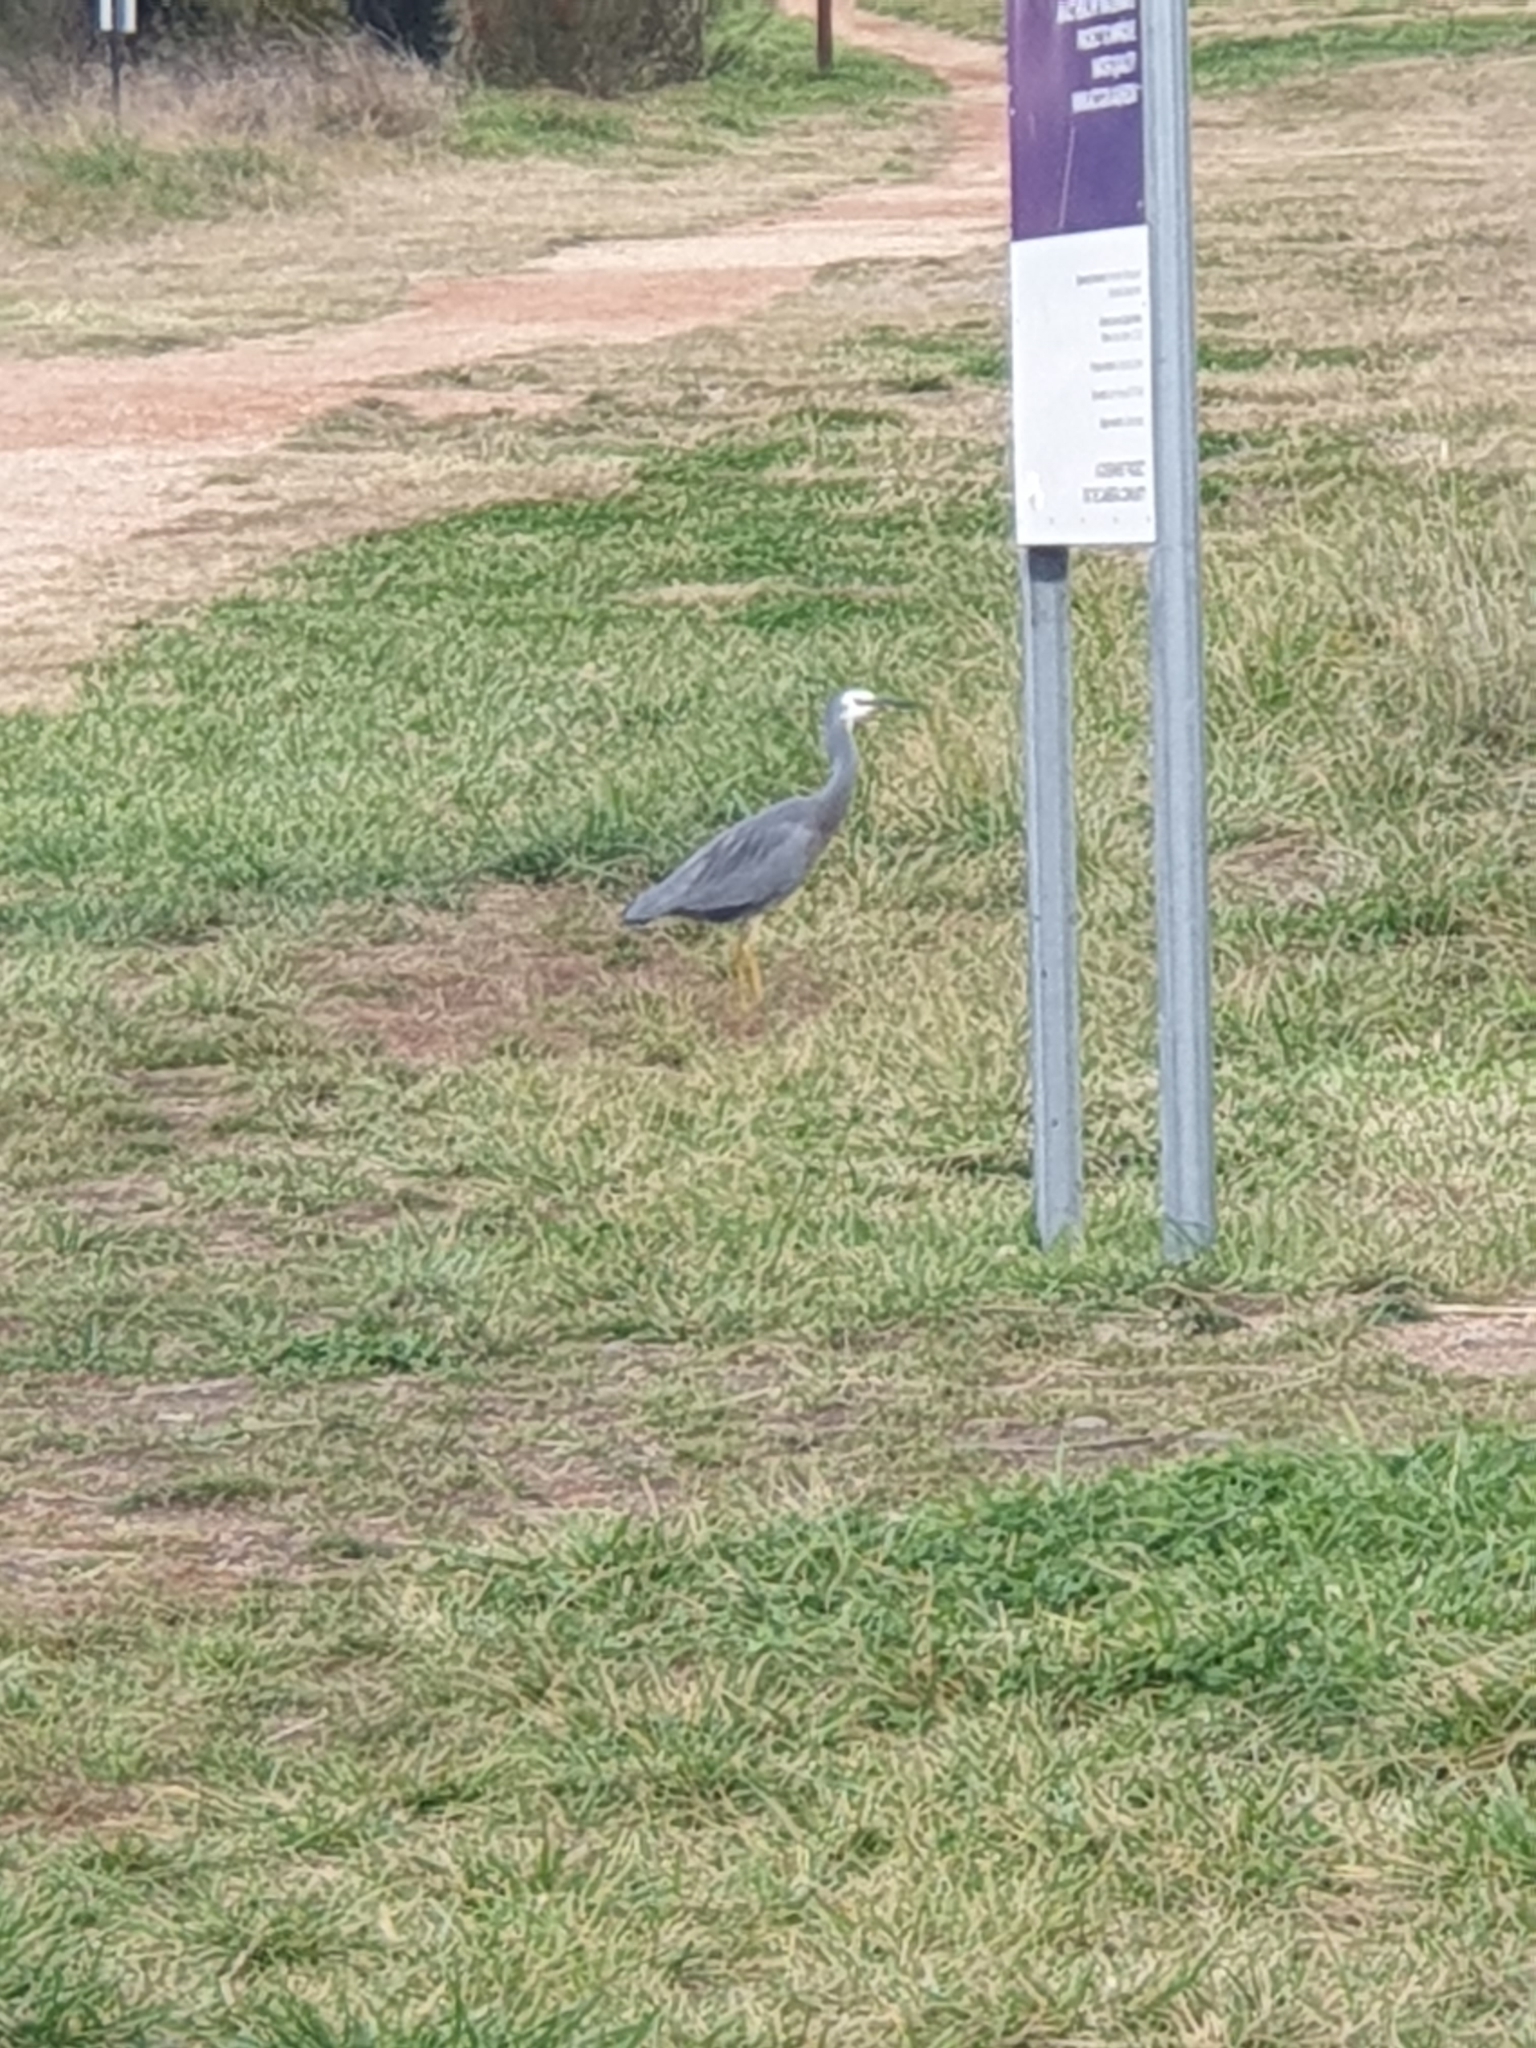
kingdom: Animalia
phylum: Chordata
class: Aves
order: Pelecaniformes
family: Ardeidae
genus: Egretta
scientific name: Egretta novaehollandiae
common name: White-faced heron
